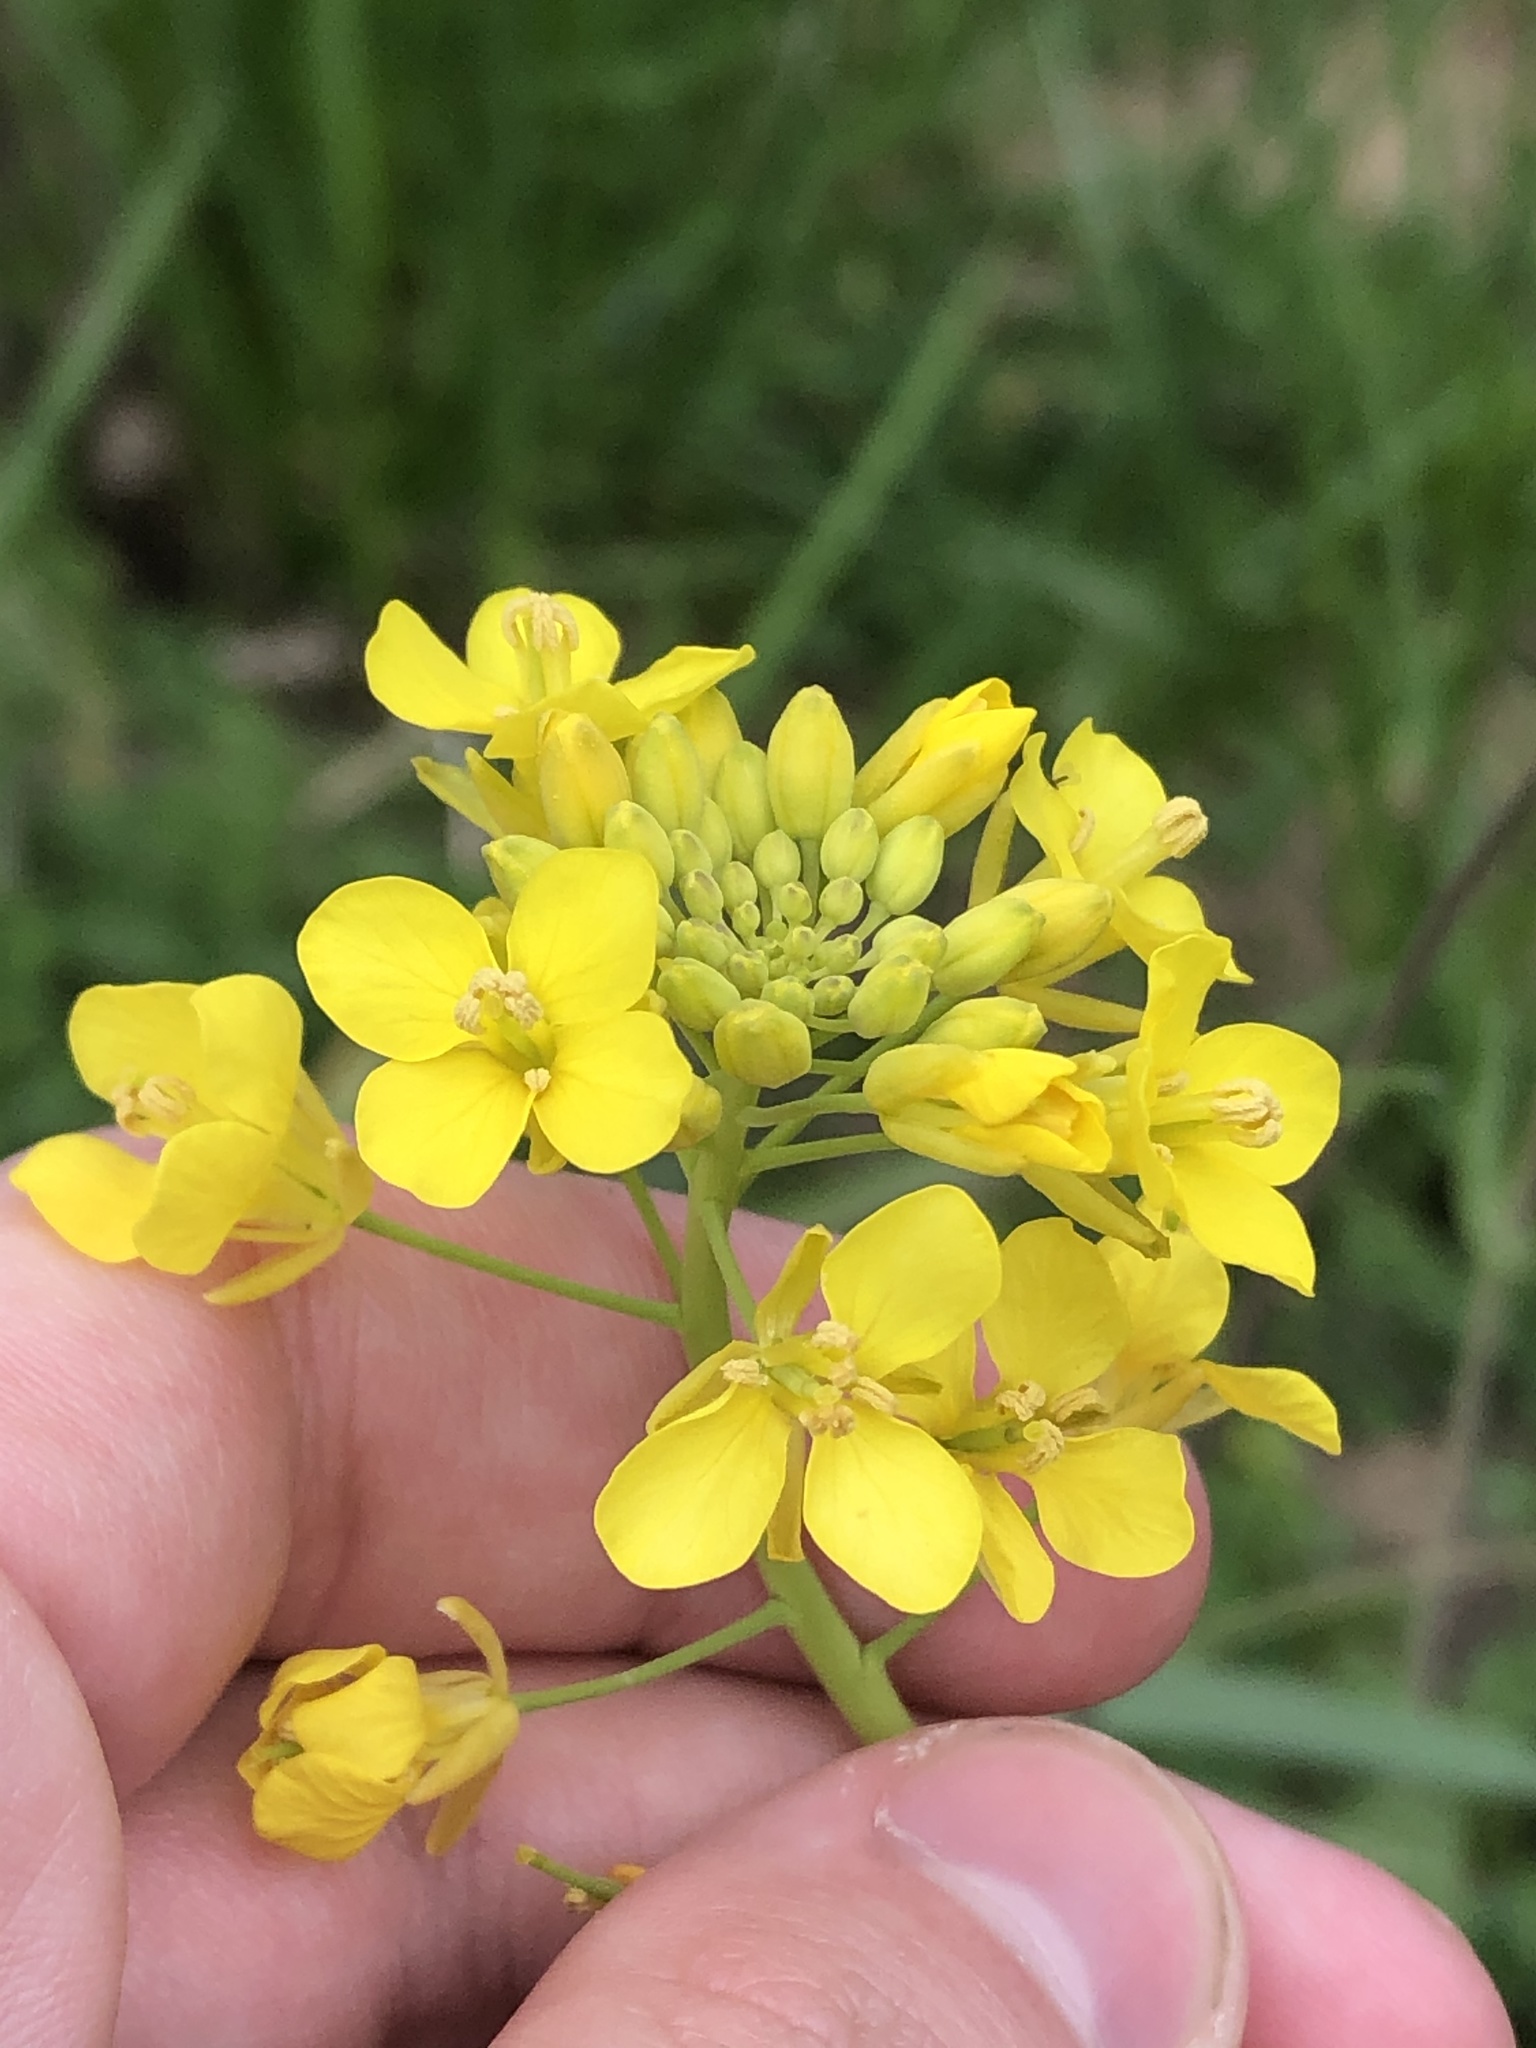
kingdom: Plantae
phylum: Tracheophyta
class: Magnoliopsida
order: Brassicales
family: Brassicaceae
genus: Brassica
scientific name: Brassica rapa
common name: Field mustard
